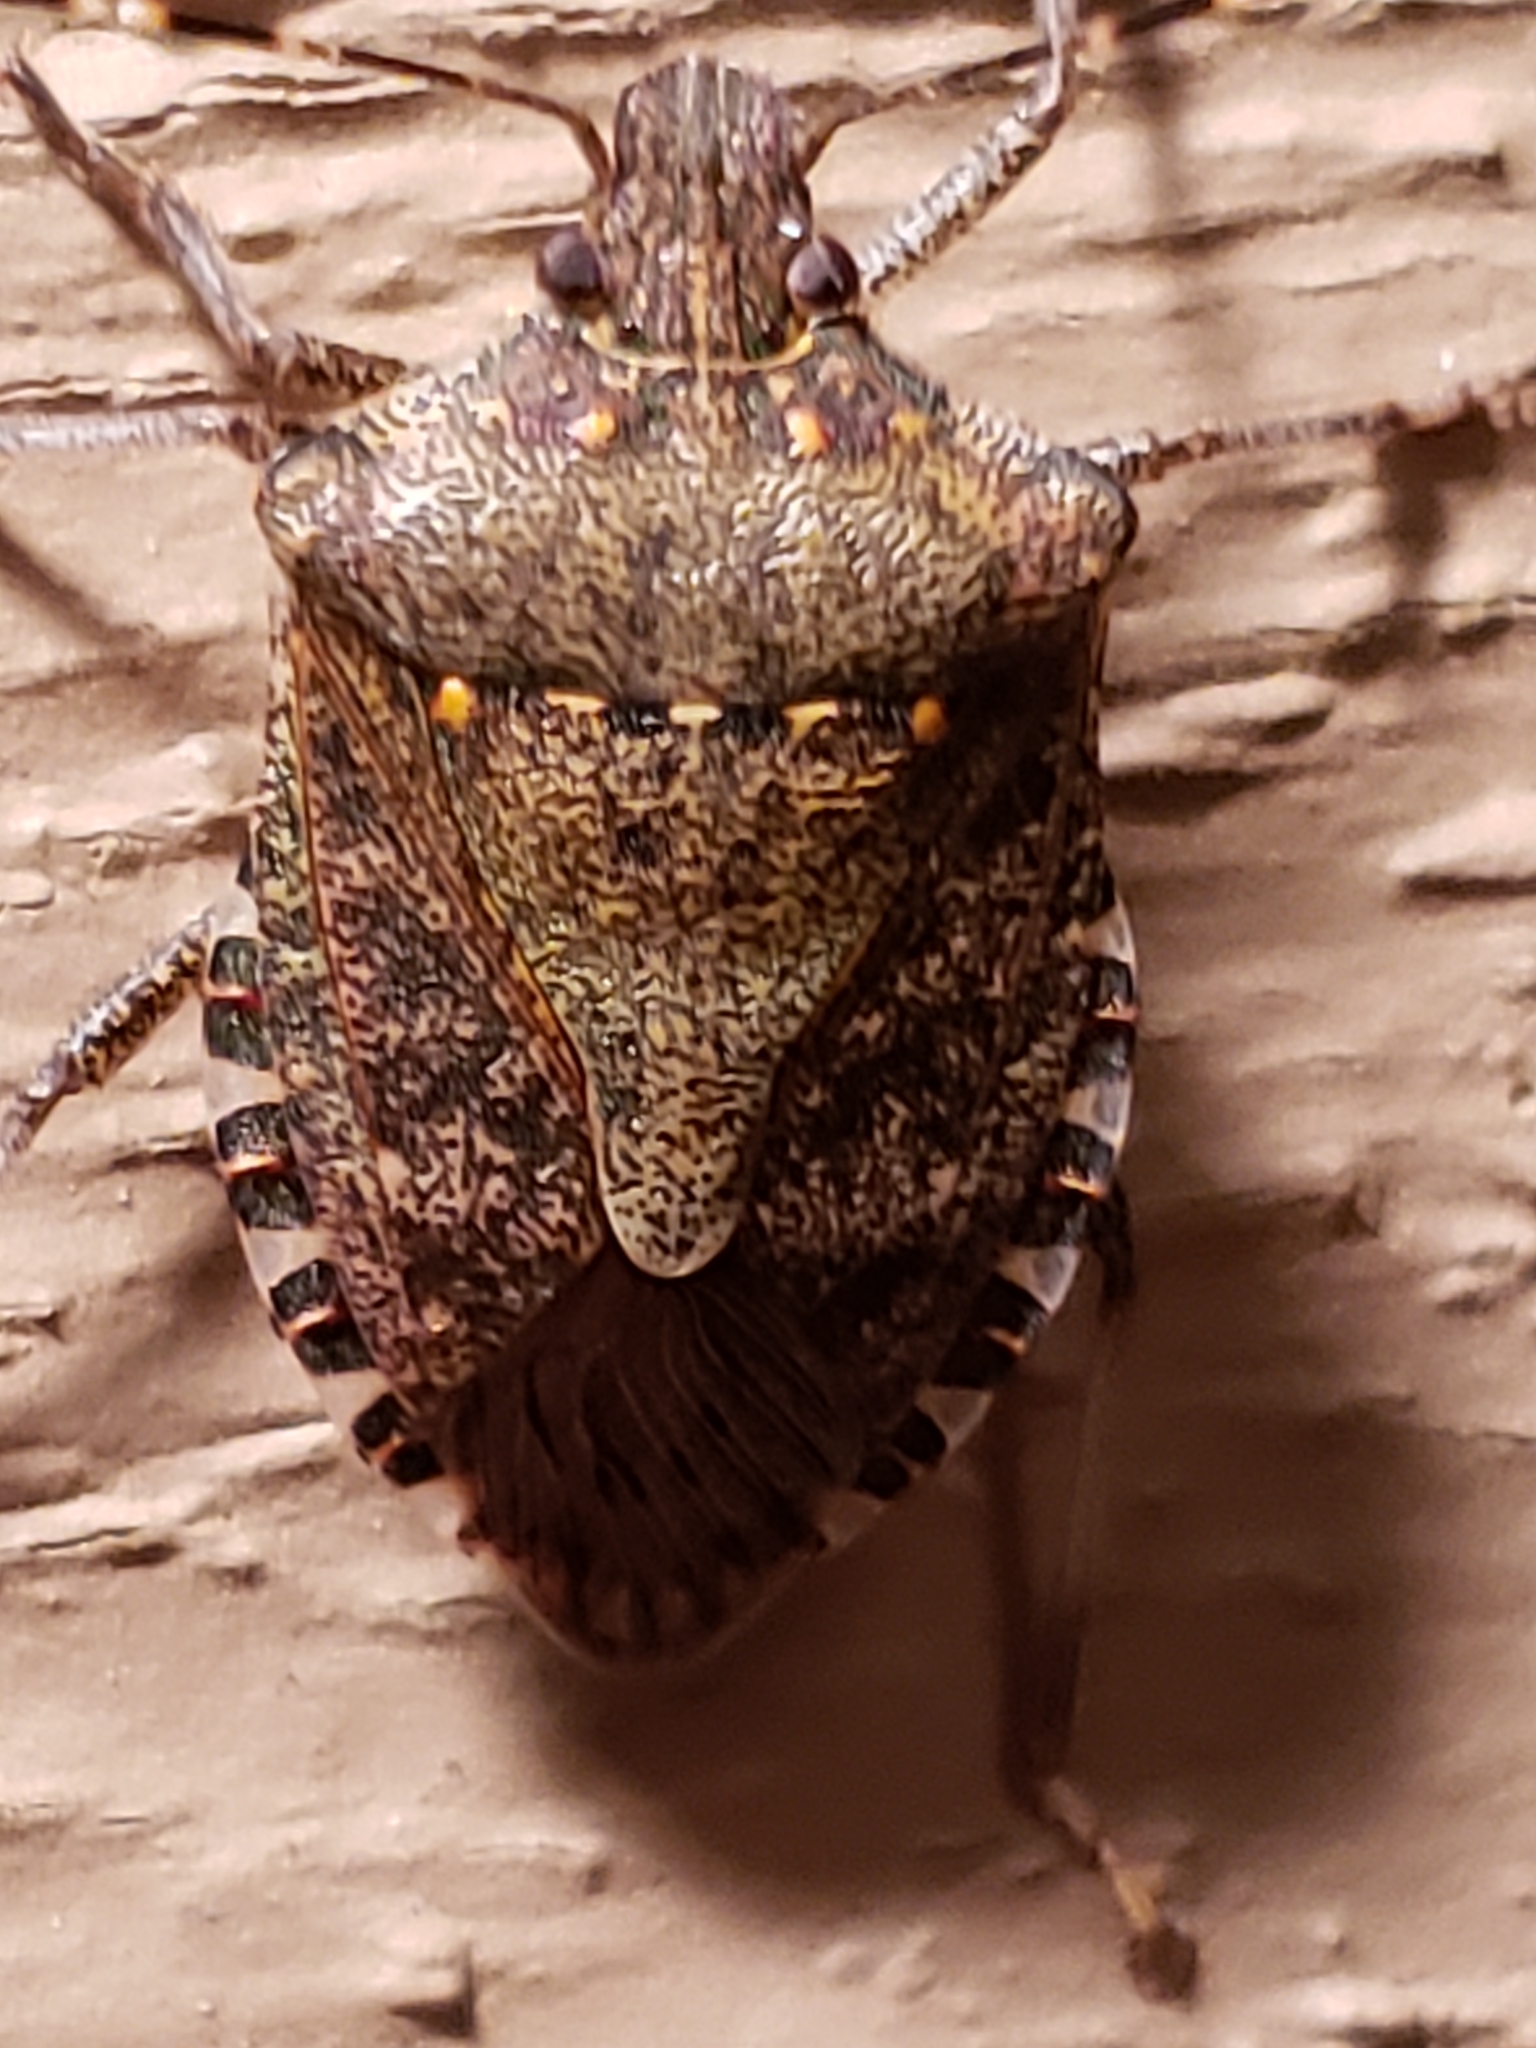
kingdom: Animalia
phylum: Arthropoda
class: Insecta
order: Hemiptera
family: Pentatomidae
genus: Halyomorpha
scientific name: Halyomorpha halys
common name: Brown marmorated stink bug
